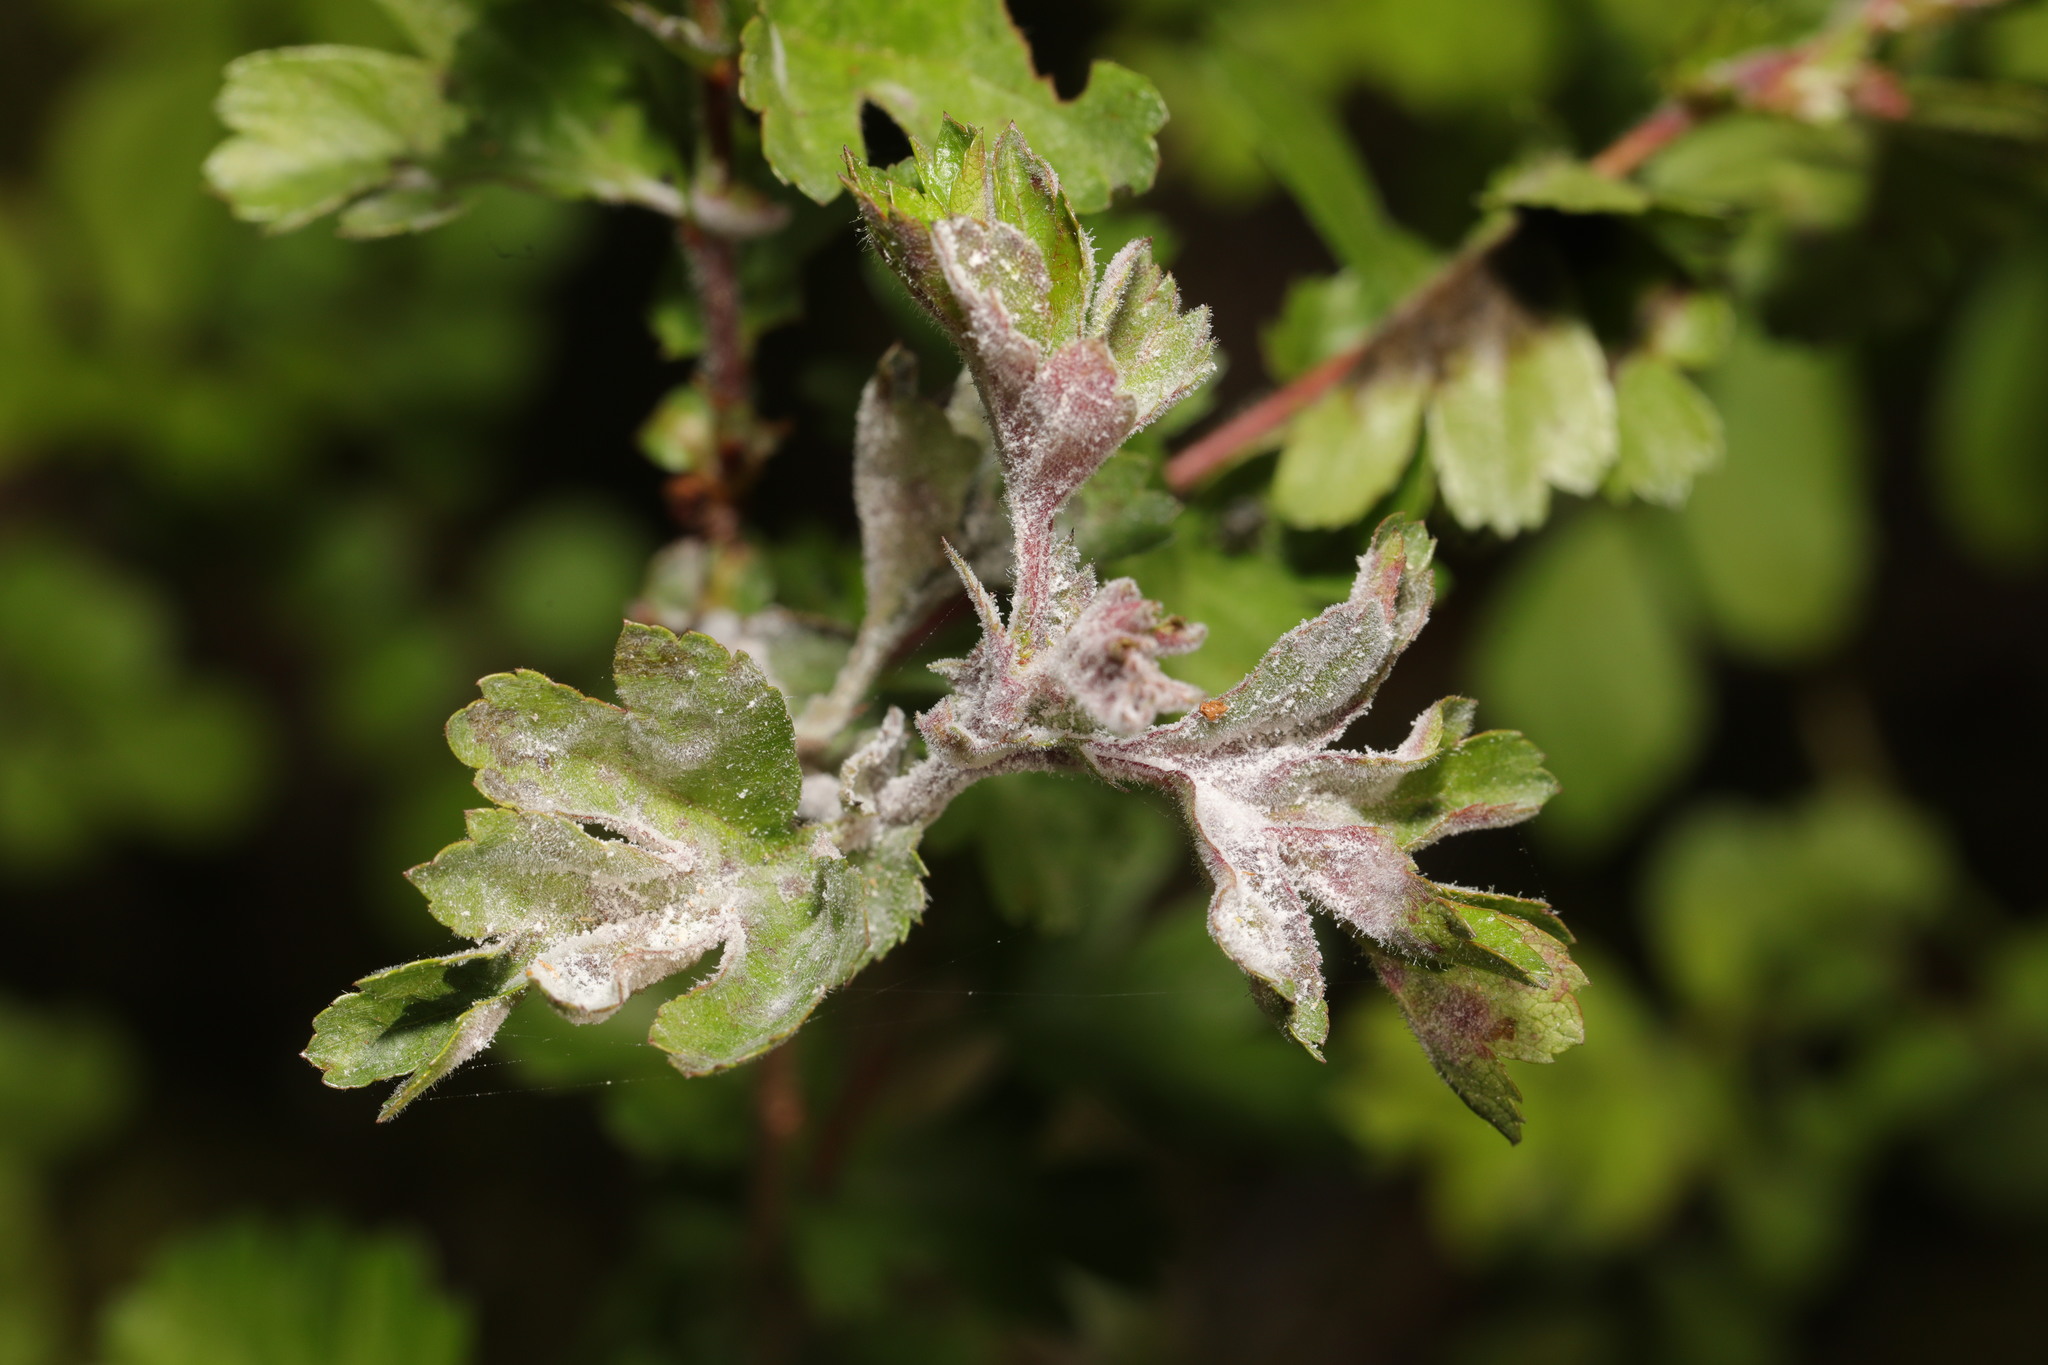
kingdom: Fungi
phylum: Ascomycota
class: Leotiomycetes
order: Helotiales
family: Erysiphaceae
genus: Podosphaera
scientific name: Podosphaera clandestina
